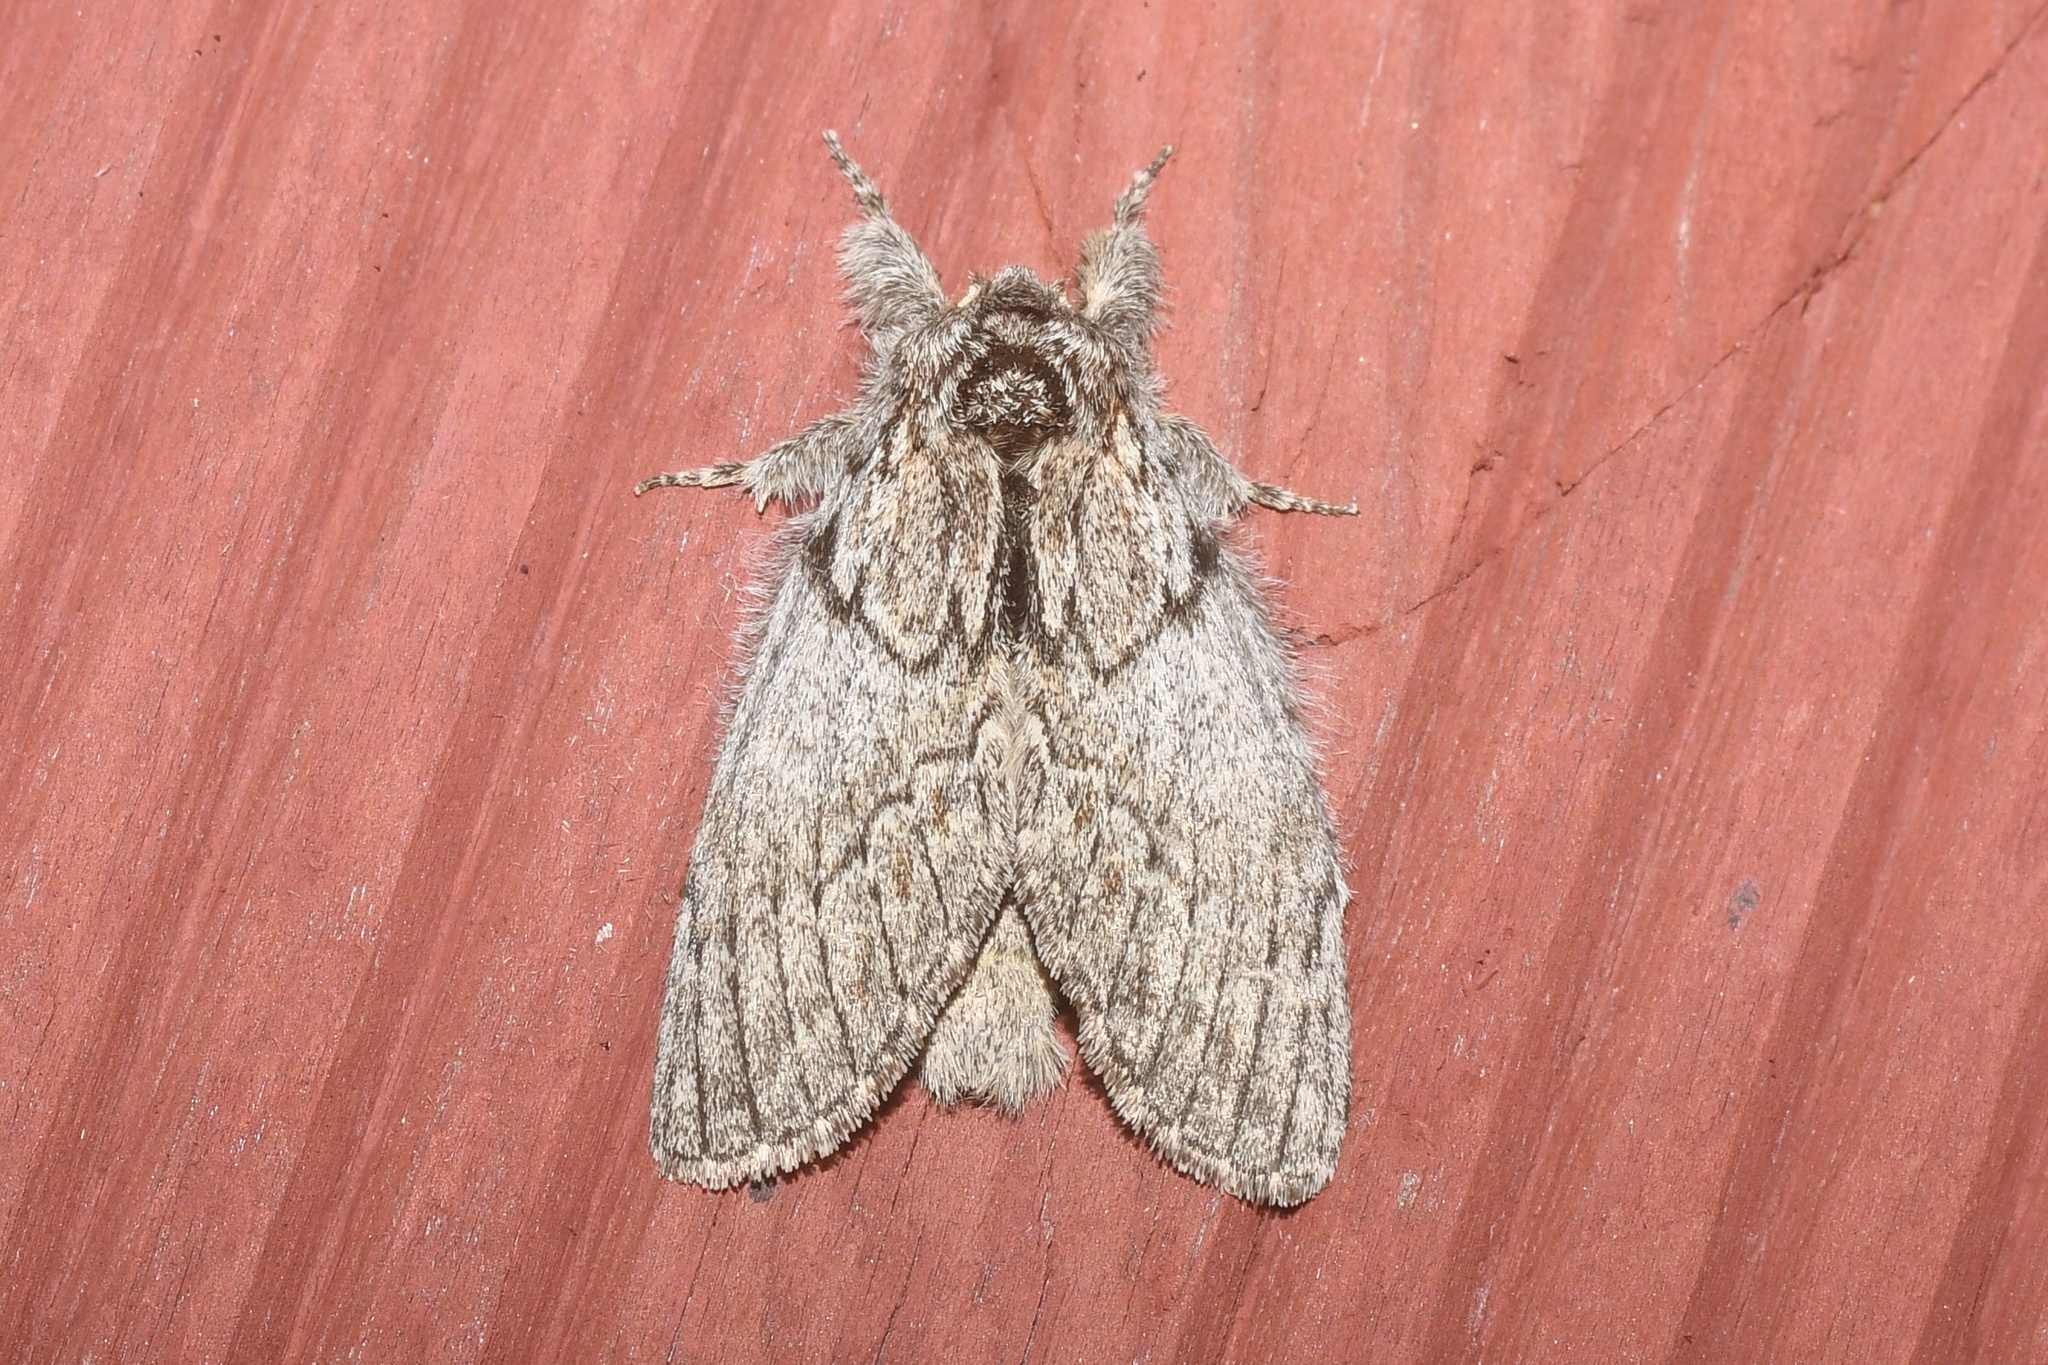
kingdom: Animalia
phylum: Arthropoda
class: Insecta
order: Lepidoptera
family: Notodontidae
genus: Peridea
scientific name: Peridea basitriens
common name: Oval-based prominent
